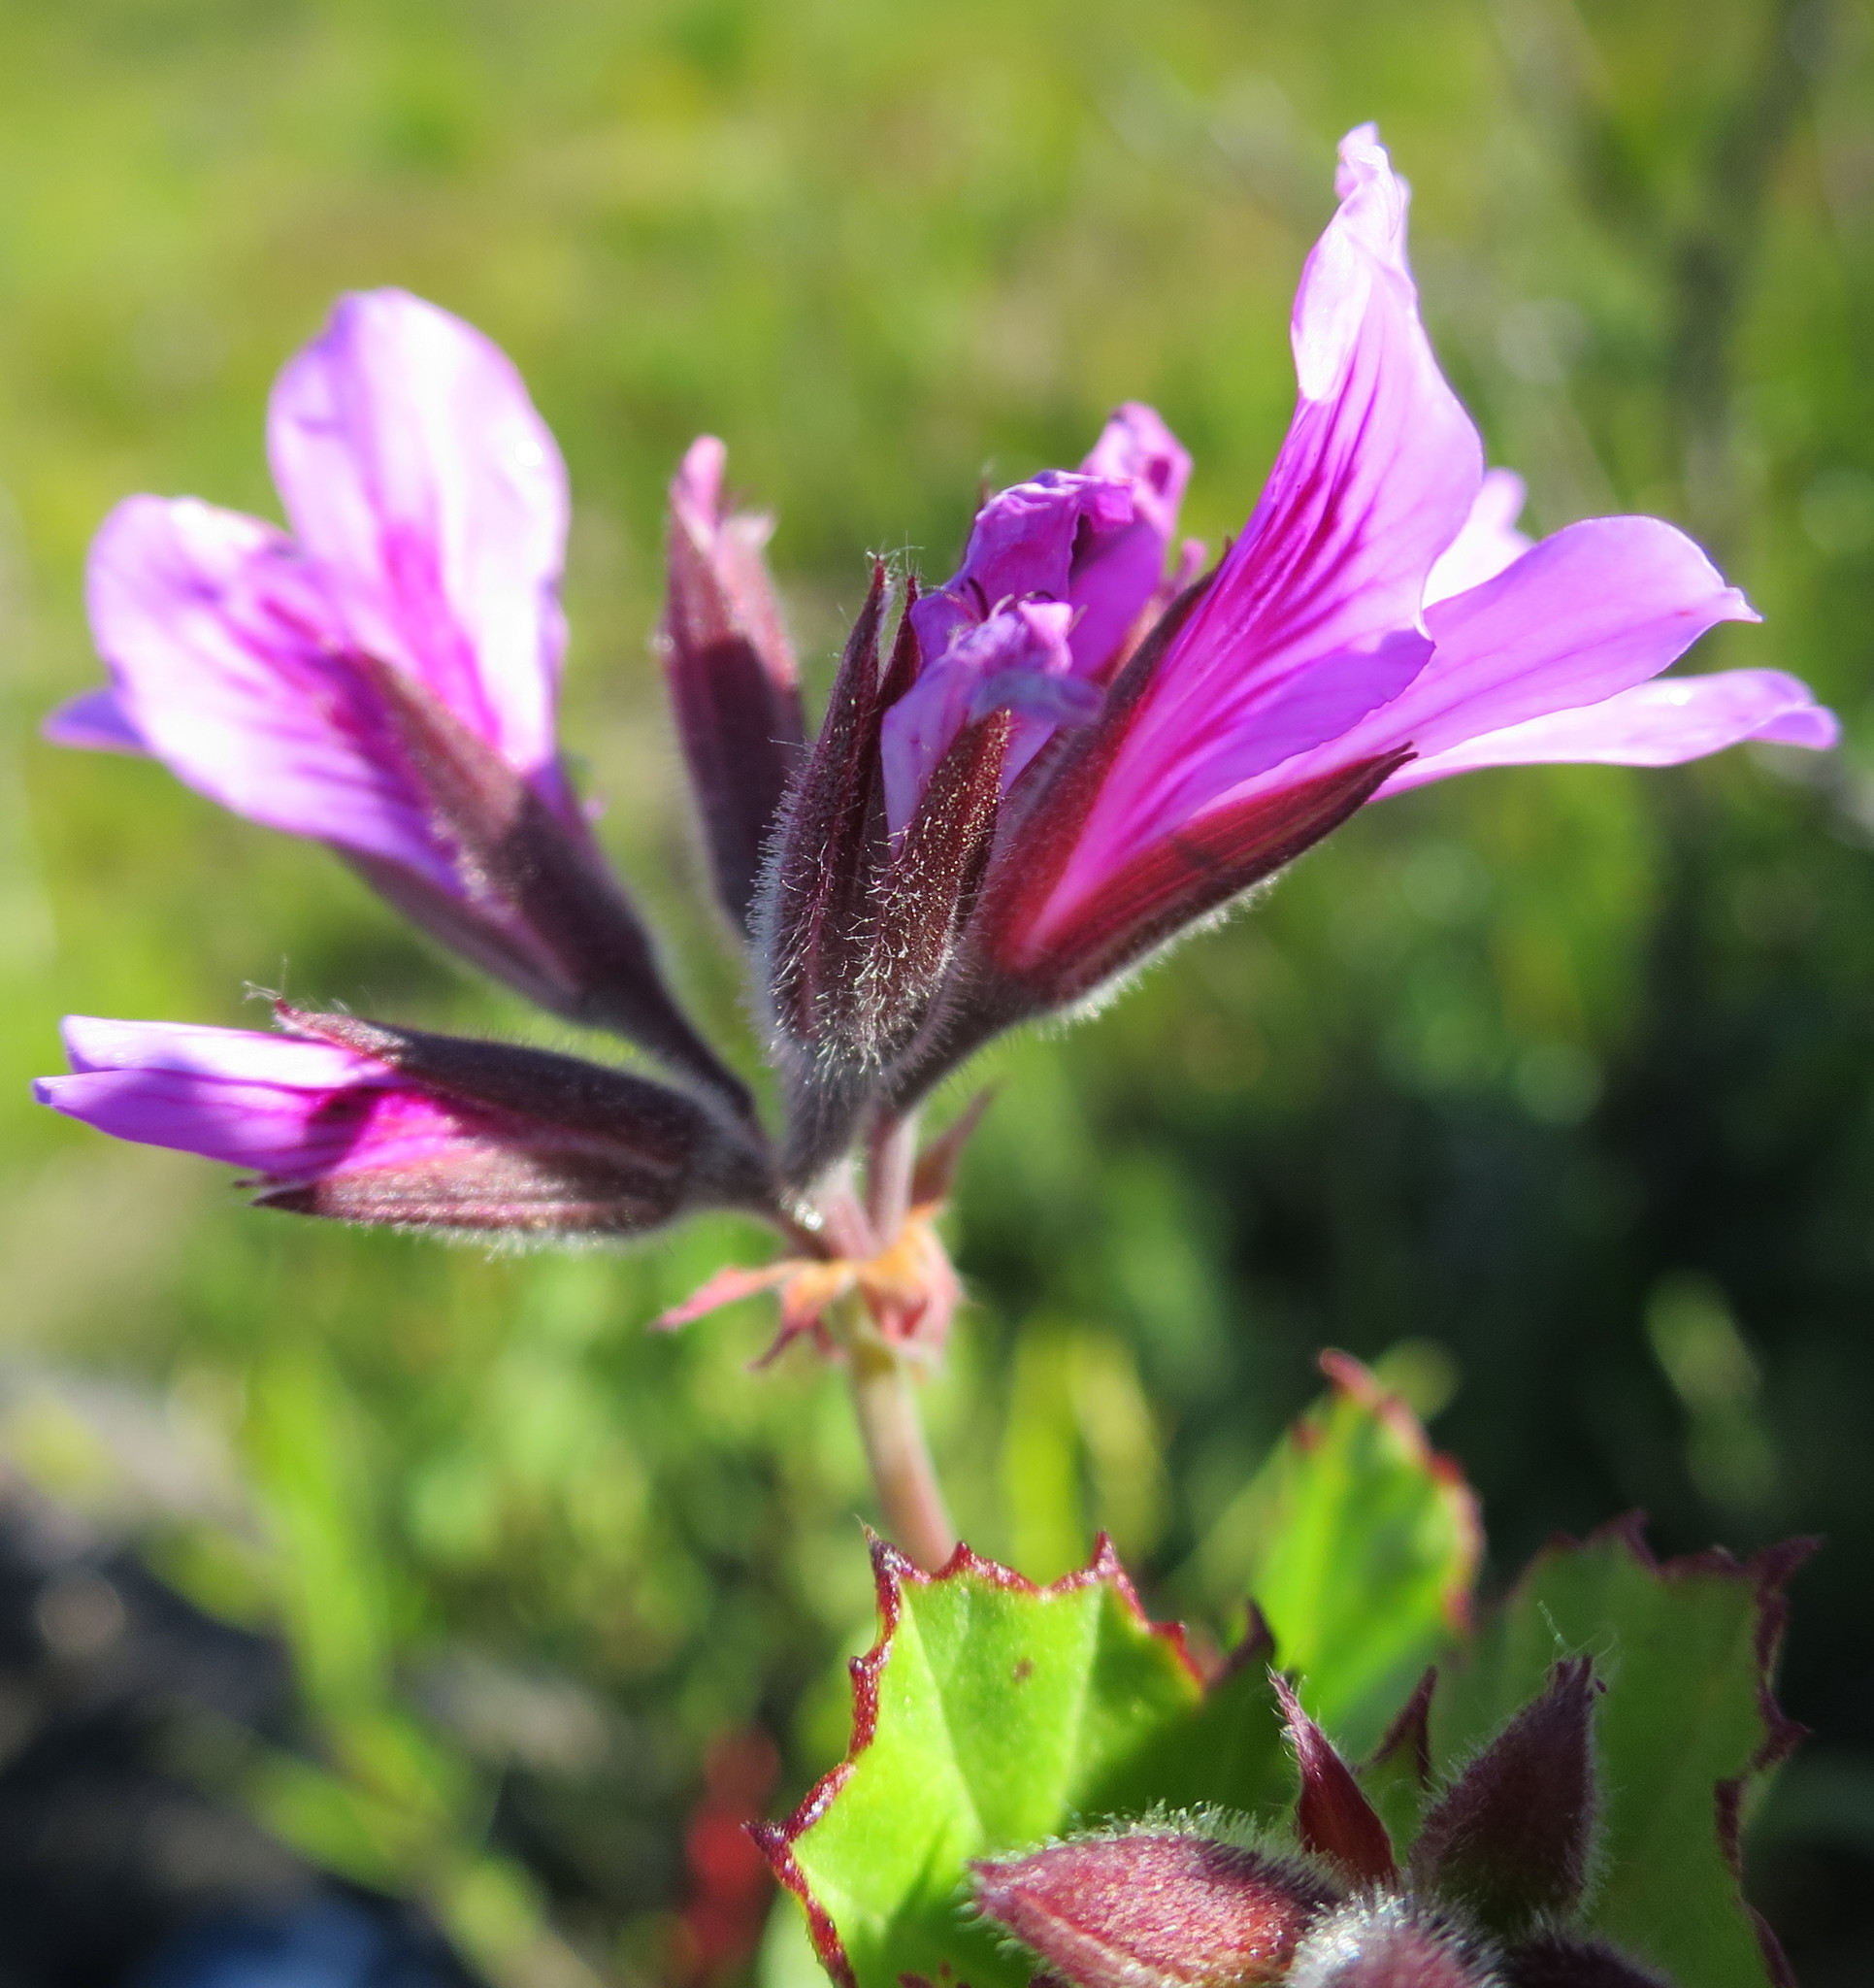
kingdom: Plantae
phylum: Tracheophyta
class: Magnoliopsida
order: Geraniales
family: Geraniaceae
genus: Pelargonium
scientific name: Pelargonium betulinum
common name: Birch-leaf pelargonium
